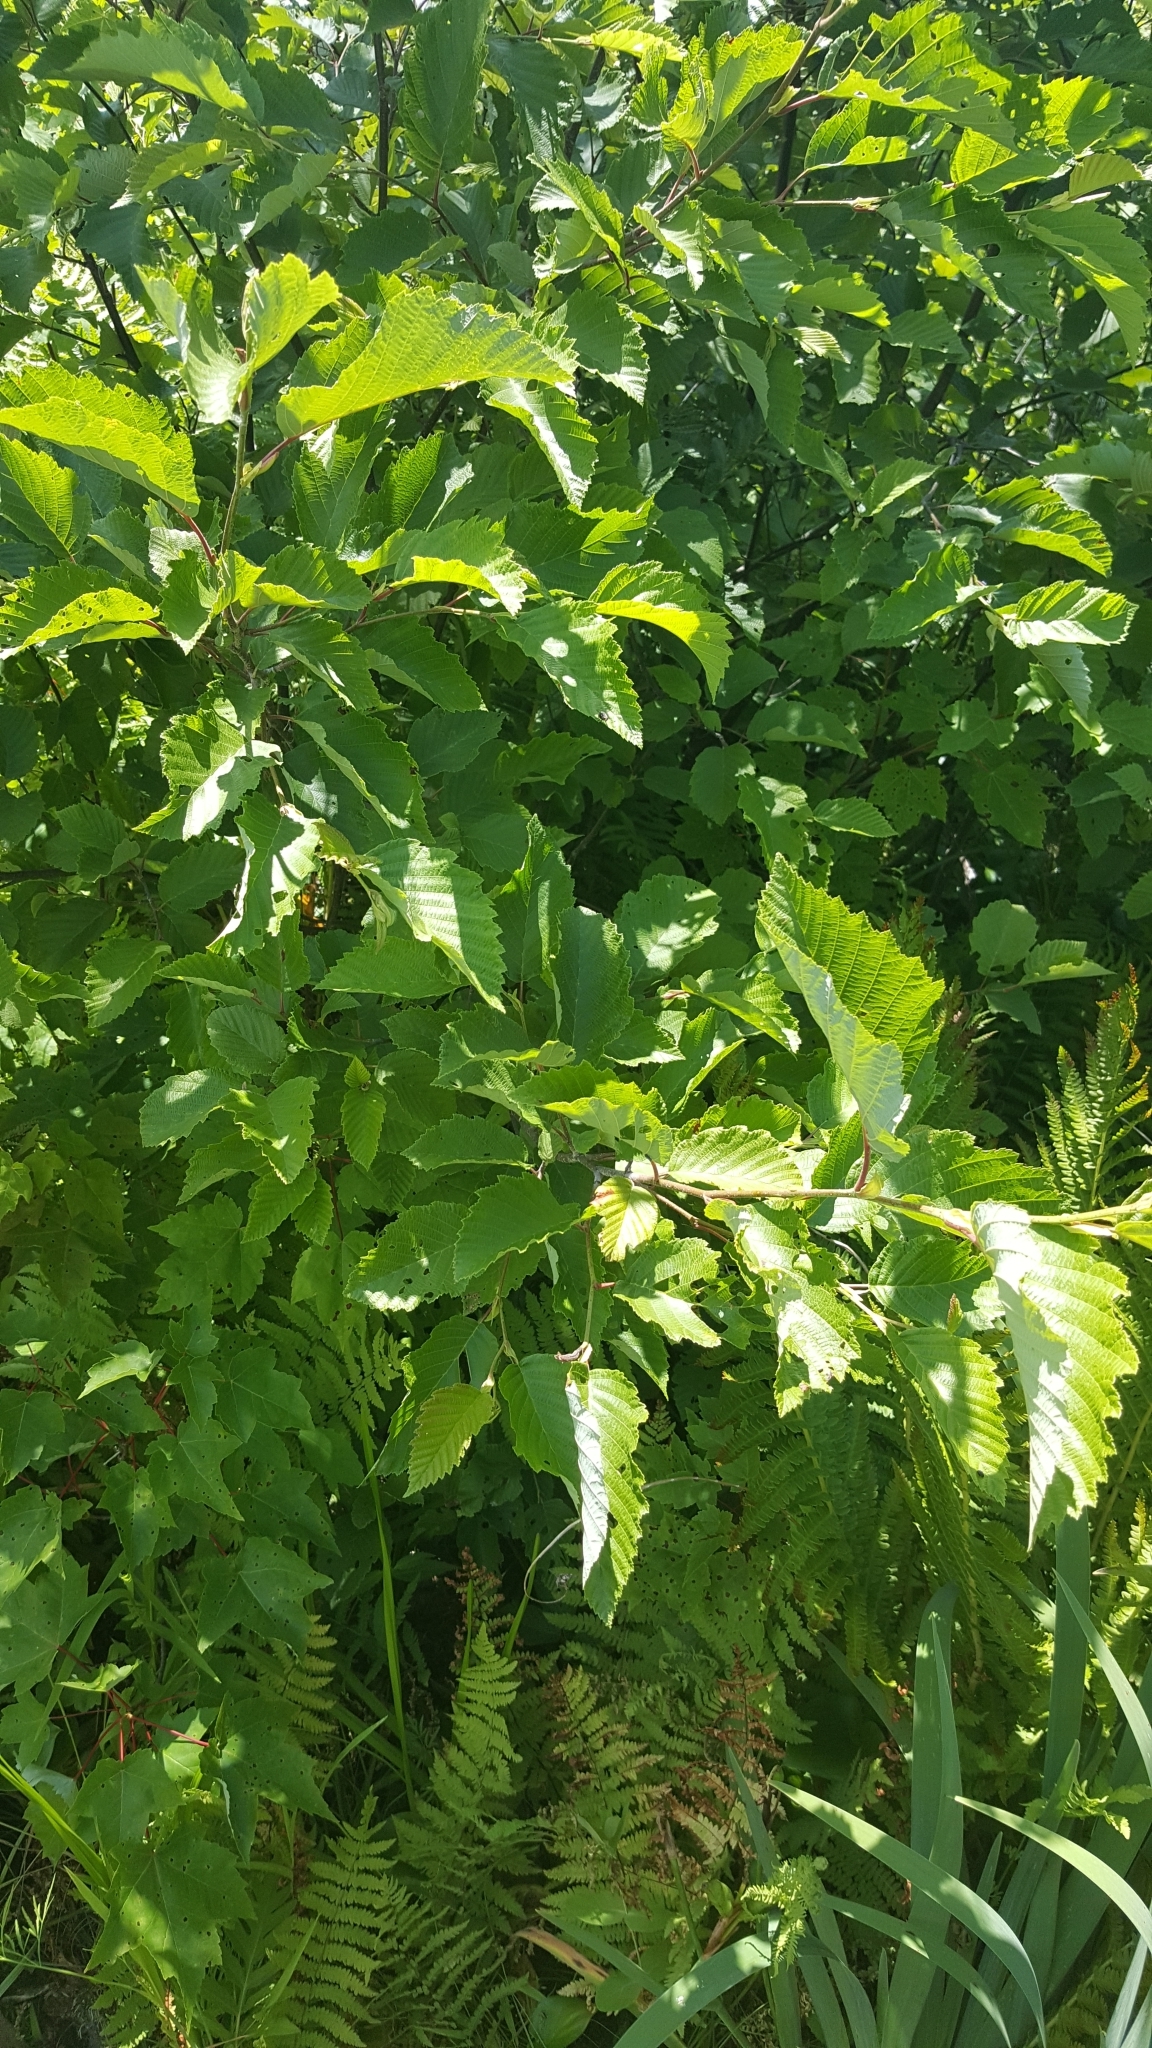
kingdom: Plantae
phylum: Tracheophyta
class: Magnoliopsida
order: Fagales
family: Betulaceae
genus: Alnus
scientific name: Alnus incana
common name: Grey alder
